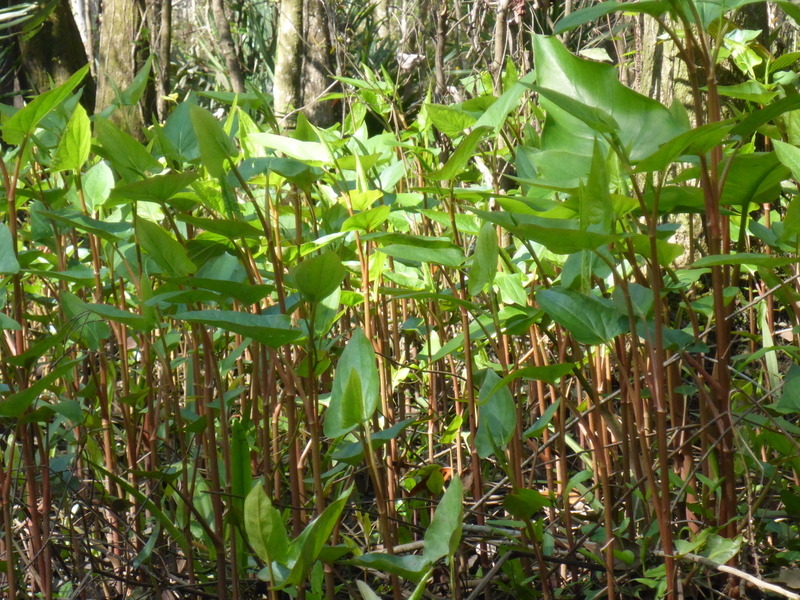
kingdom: Plantae
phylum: Tracheophyta
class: Magnoliopsida
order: Piperales
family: Saururaceae
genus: Saururus
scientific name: Saururus cernuus
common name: Lizard's-tail
